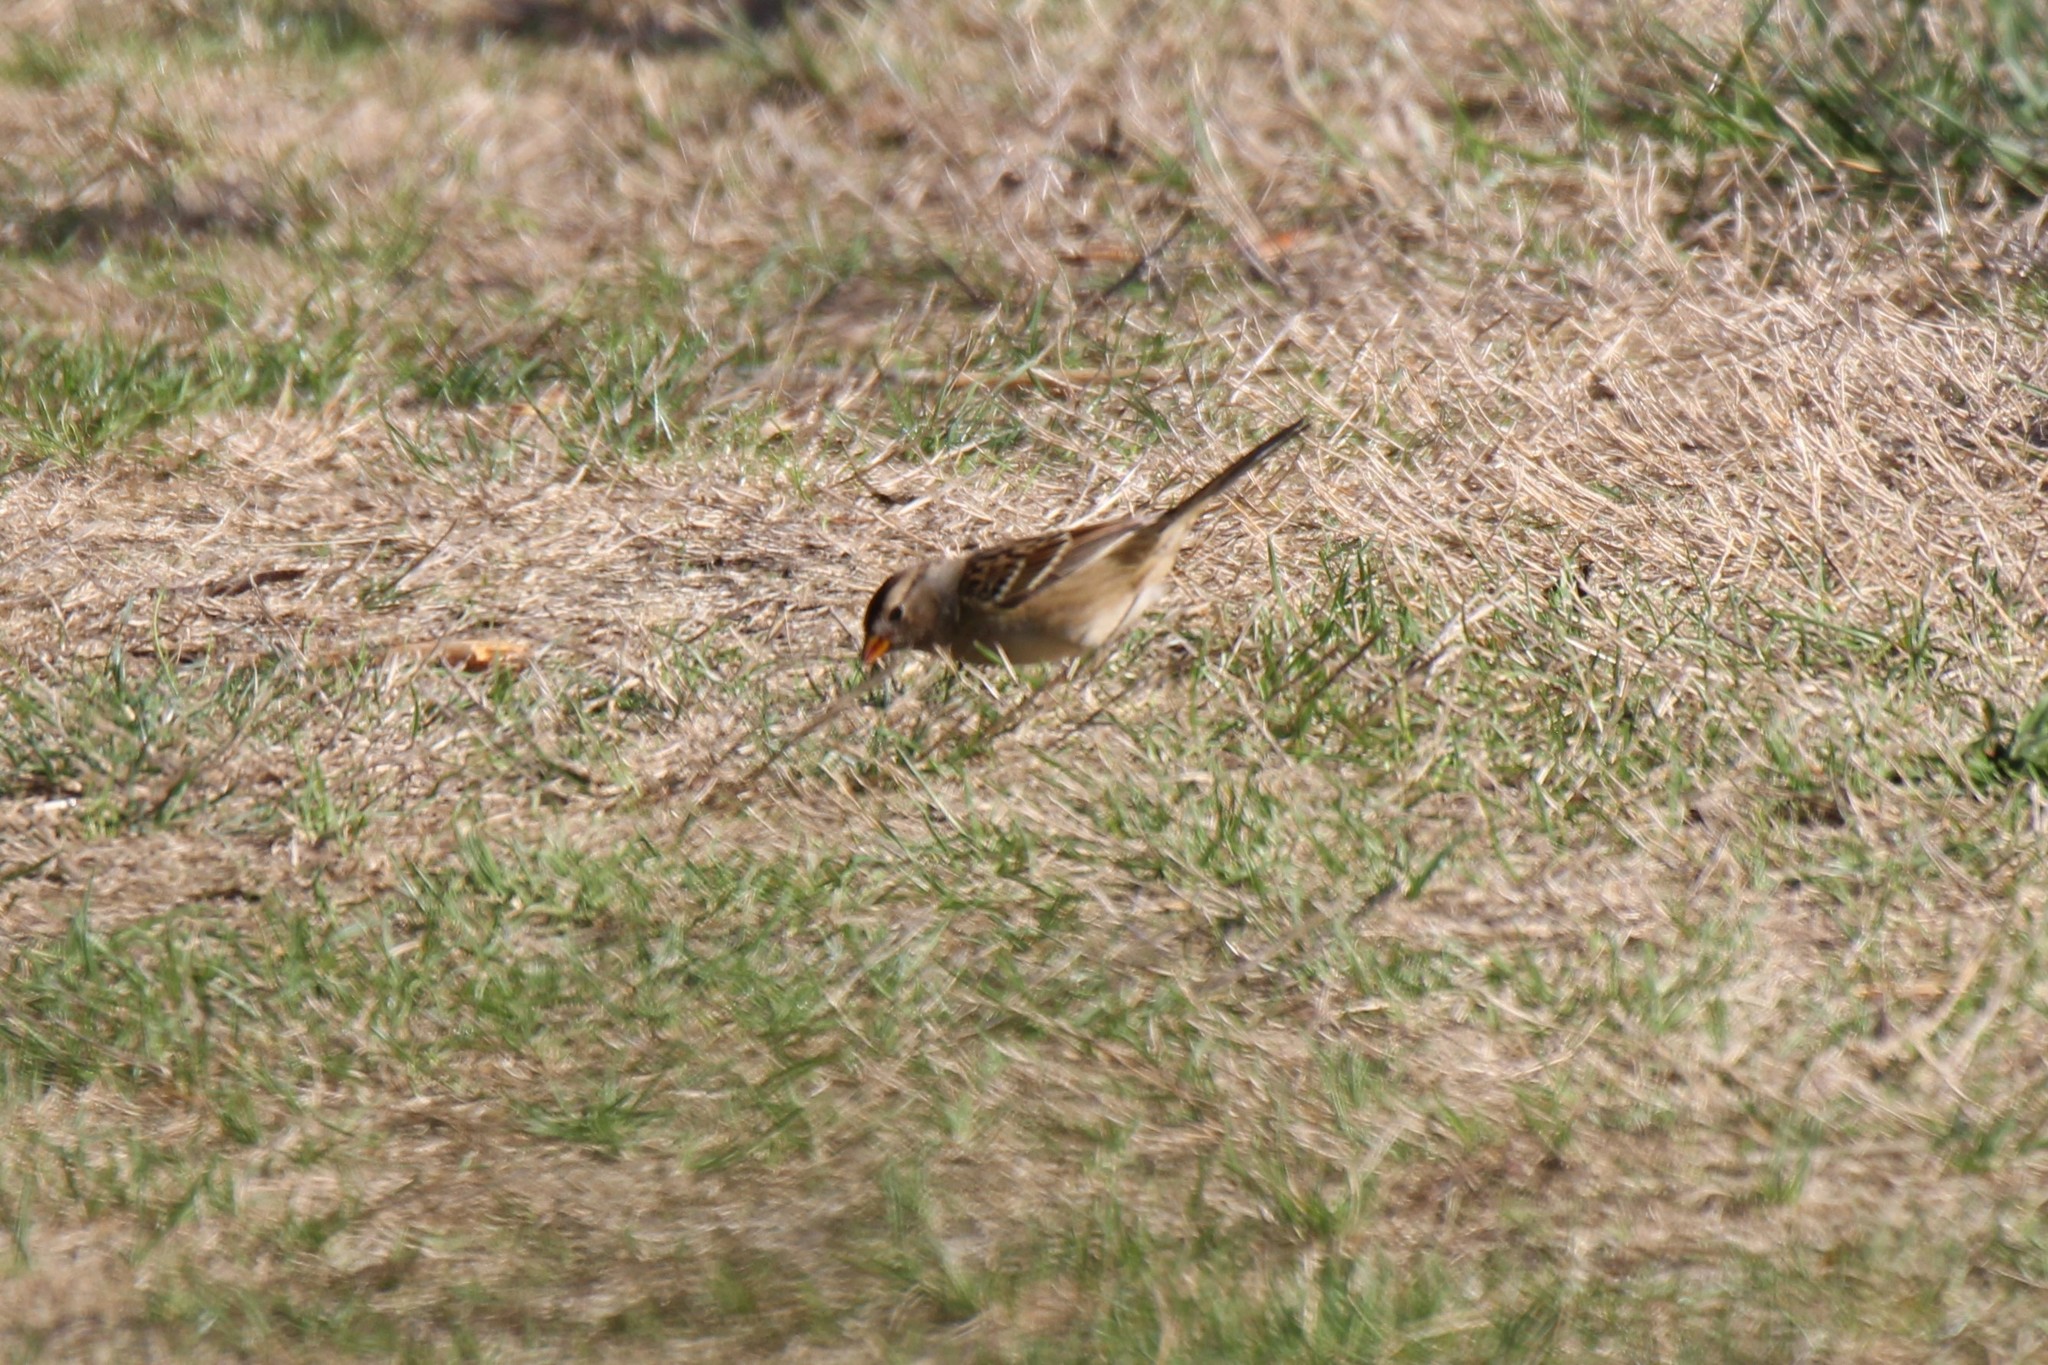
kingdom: Animalia
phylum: Chordata
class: Aves
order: Passeriformes
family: Passerellidae
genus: Zonotrichia
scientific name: Zonotrichia leucophrys
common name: White-crowned sparrow
